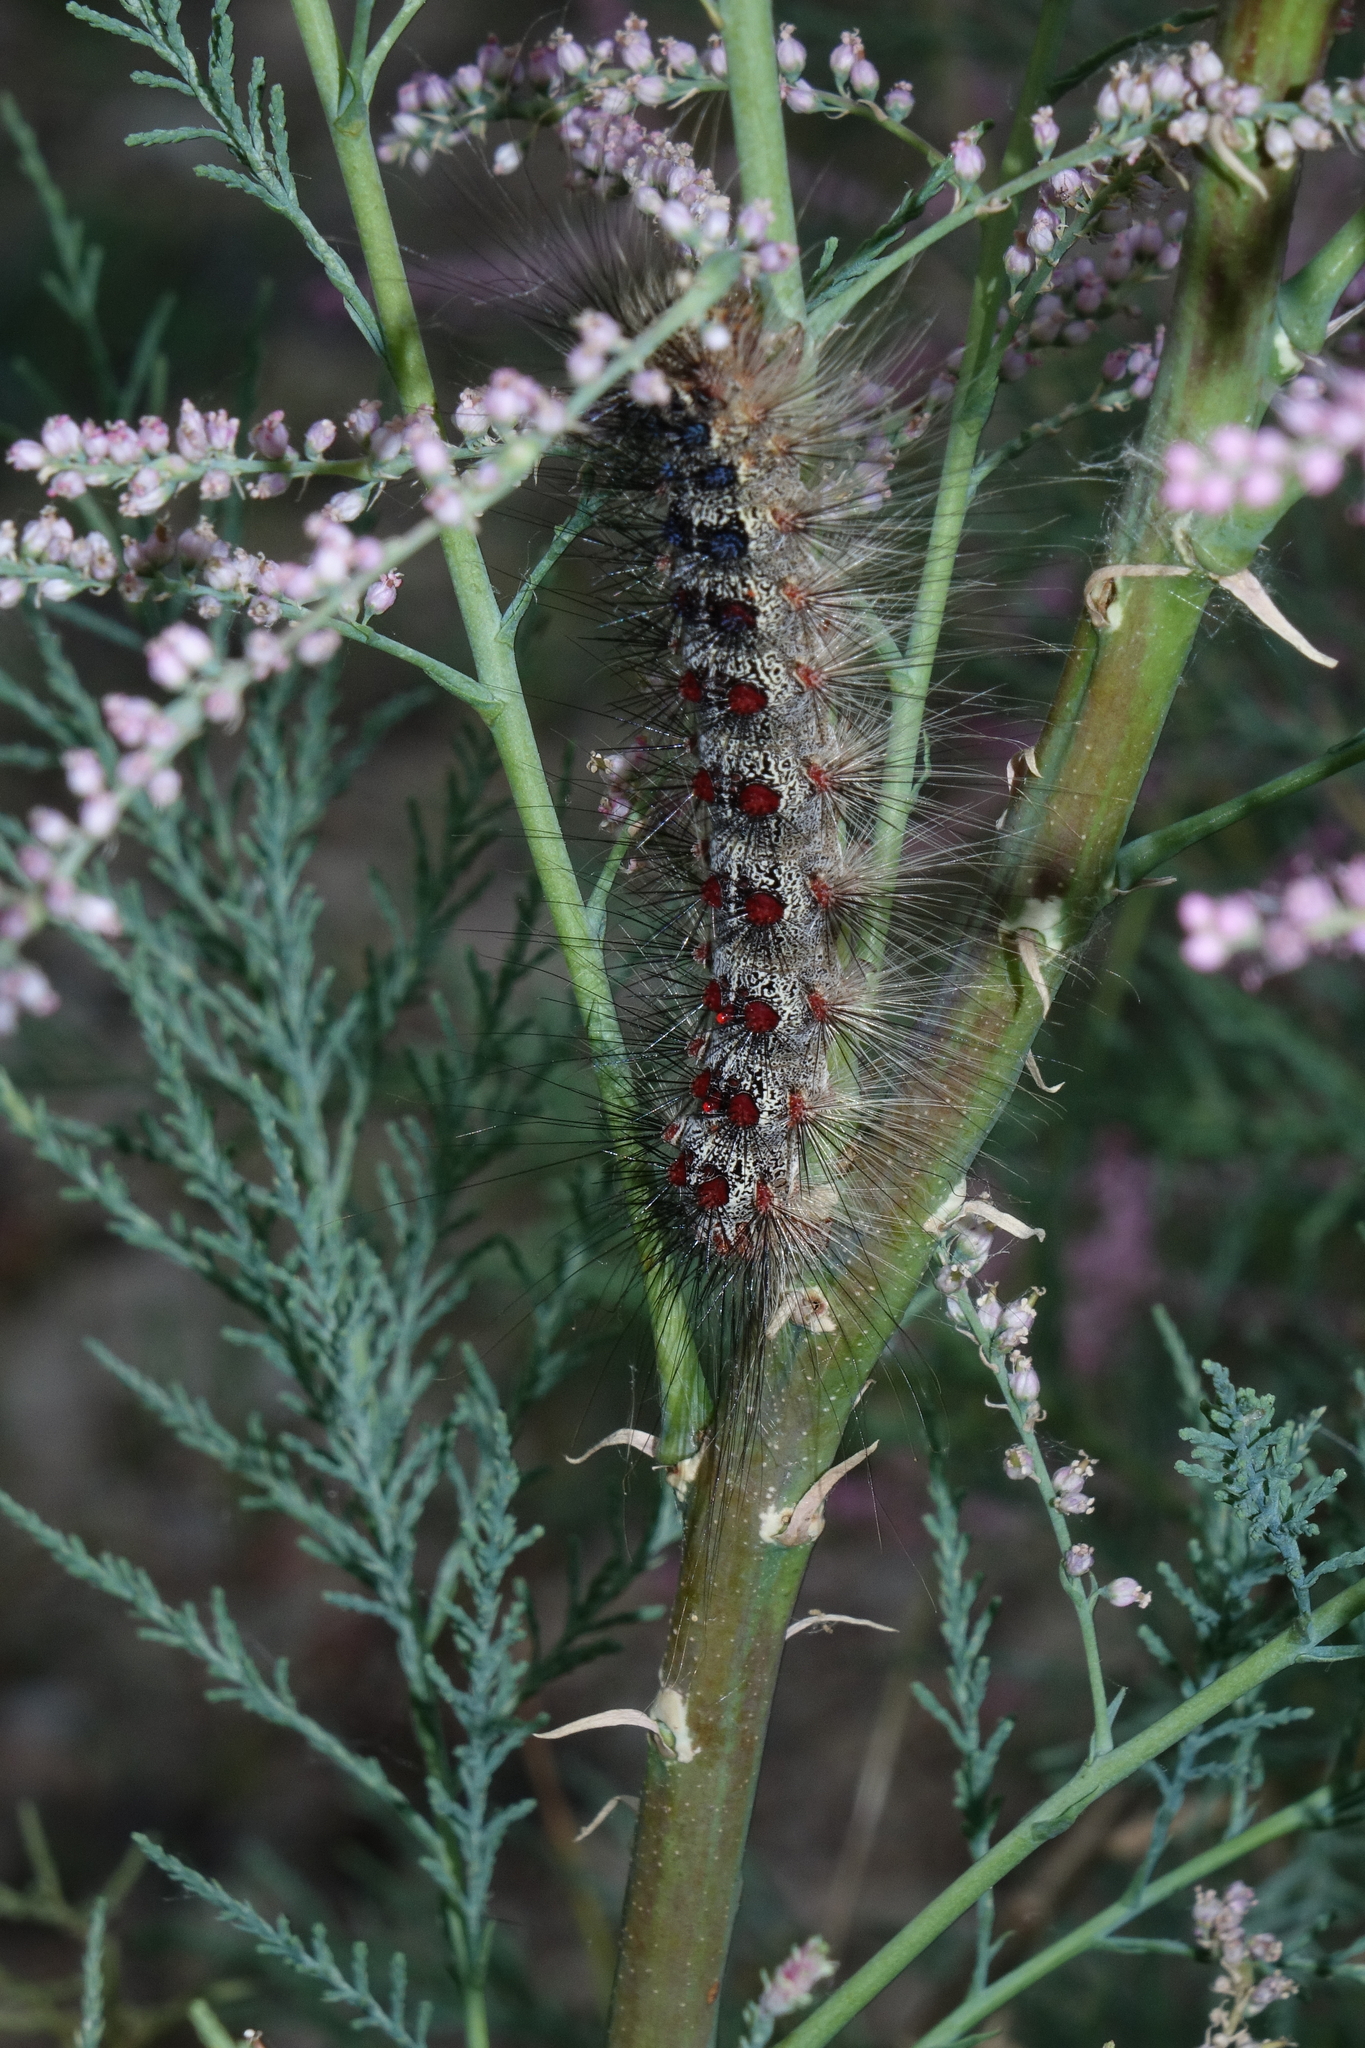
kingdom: Animalia
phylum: Arthropoda
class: Insecta
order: Lepidoptera
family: Erebidae
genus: Lymantria
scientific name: Lymantria dispar
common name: Gypsy moth
